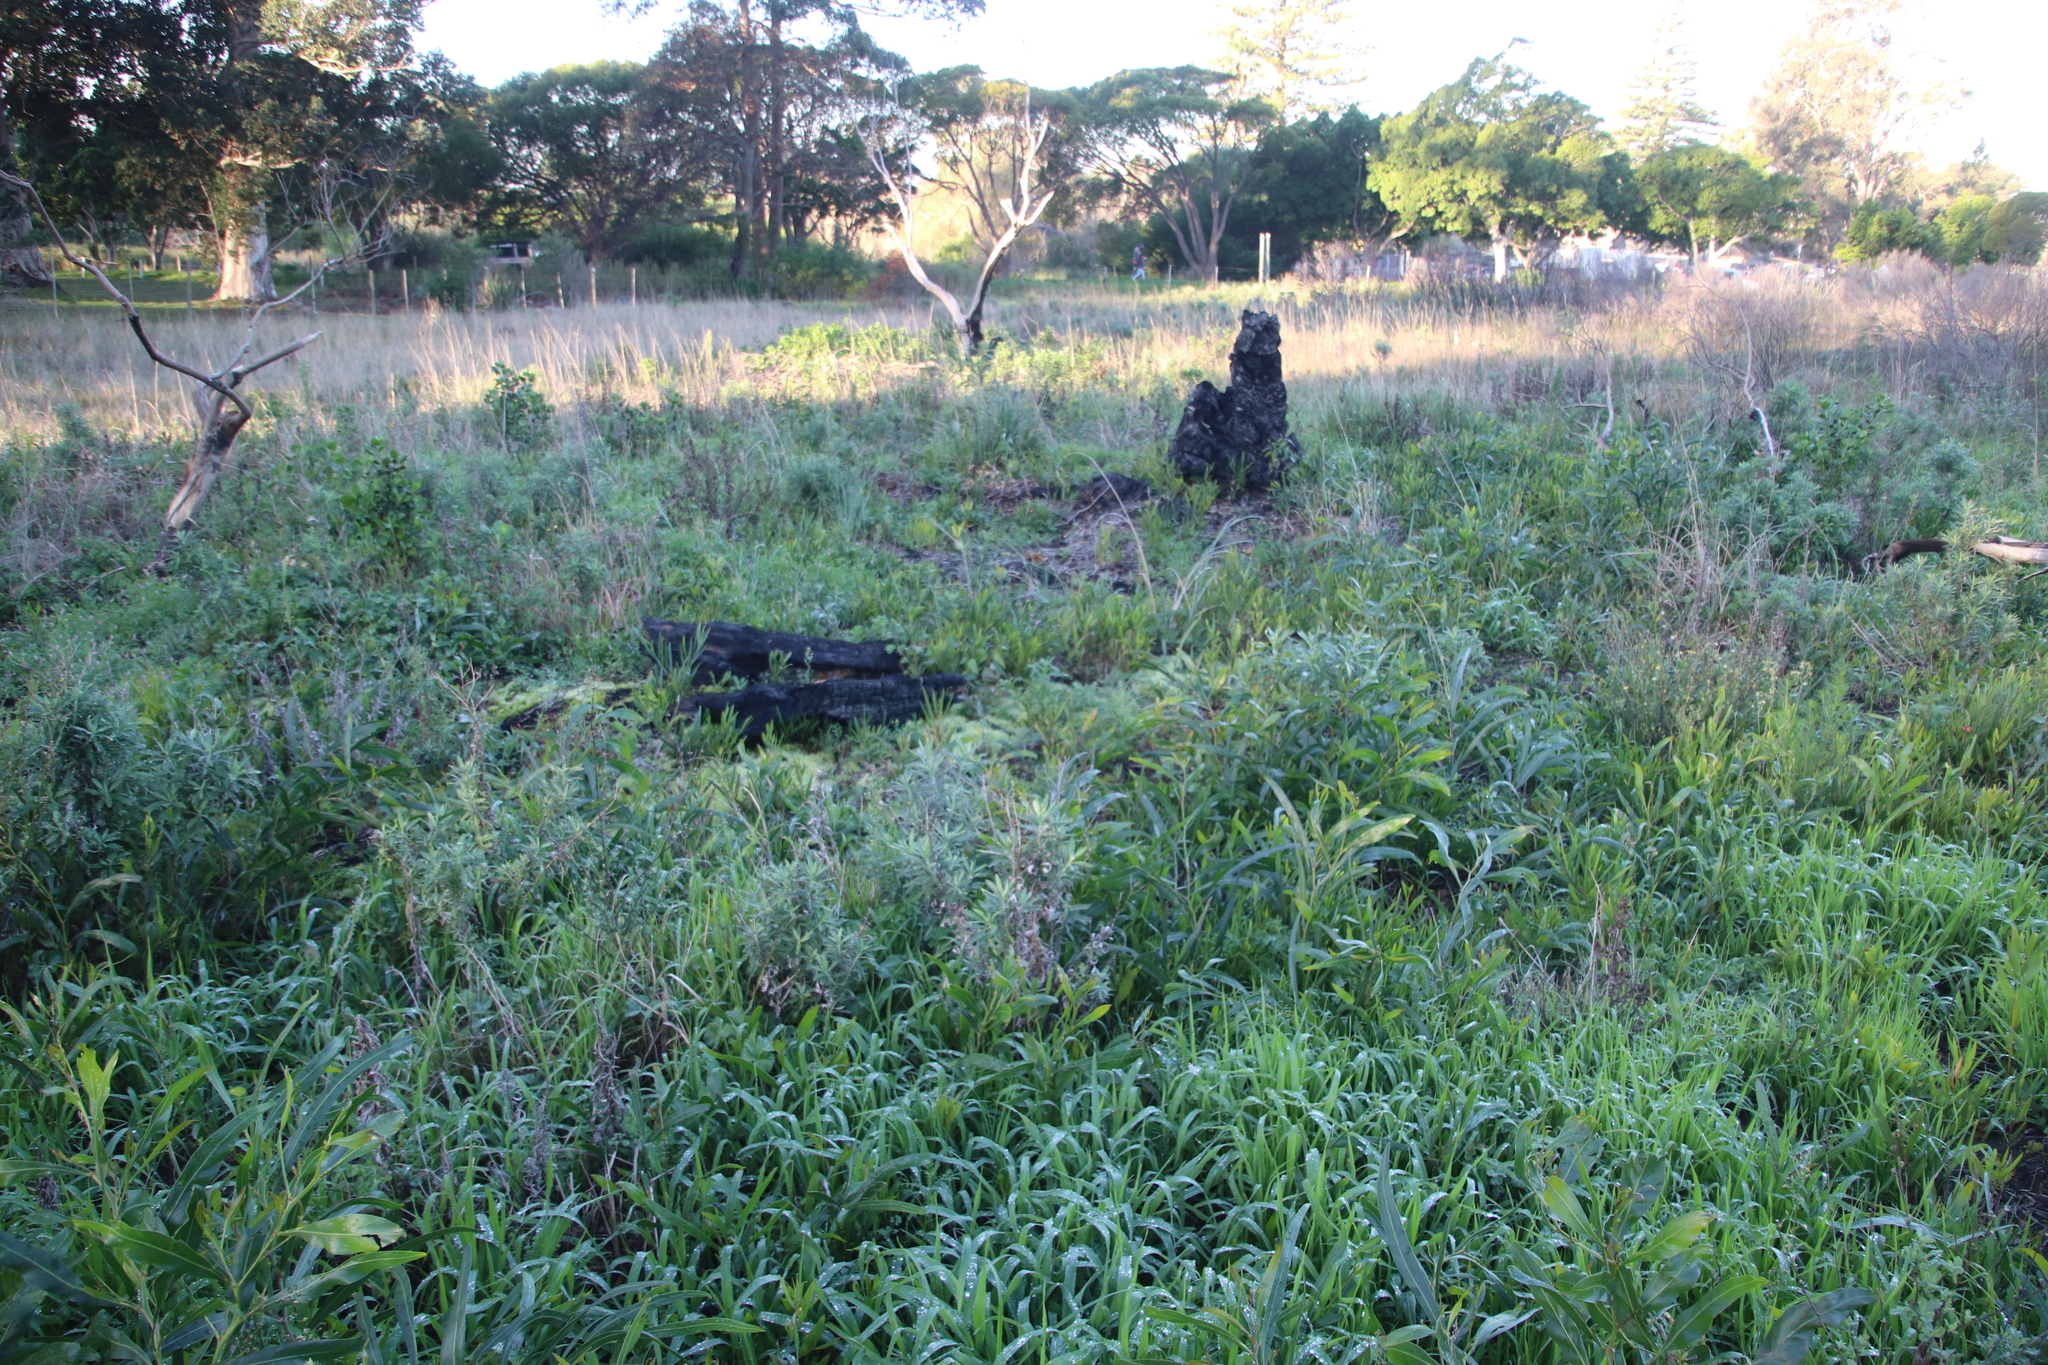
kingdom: Plantae
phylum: Tracheophyta
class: Magnoliopsida
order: Fabales
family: Fabaceae
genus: Acacia
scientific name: Acacia saligna
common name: Orange wattle
